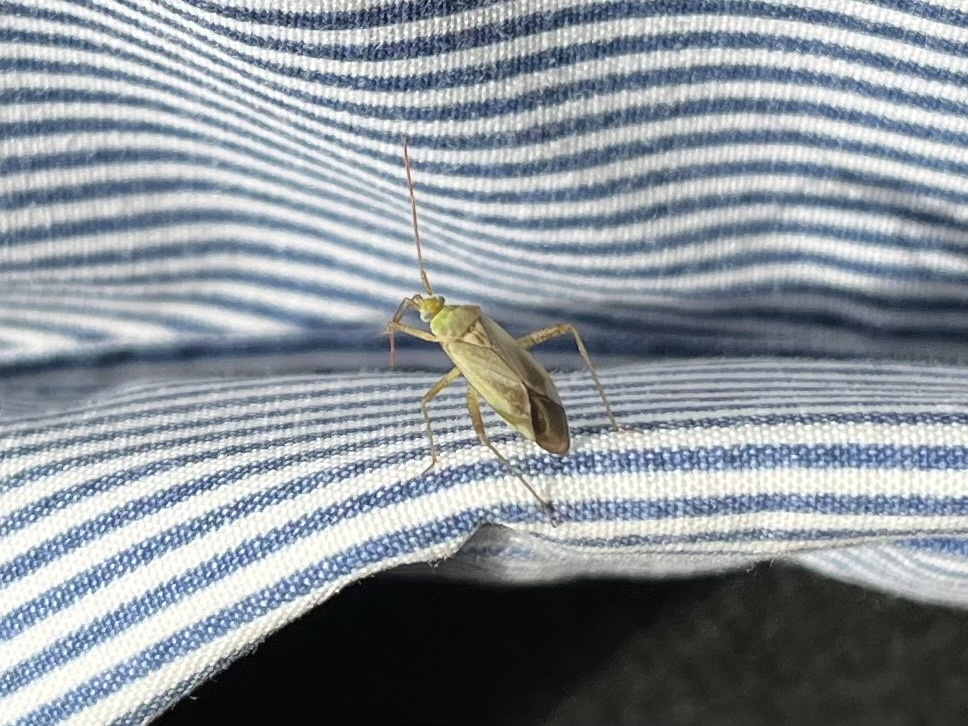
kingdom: Animalia
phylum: Arthropoda
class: Insecta
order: Hemiptera
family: Miridae
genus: Adelphocoris
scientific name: Adelphocoris lineolatus
